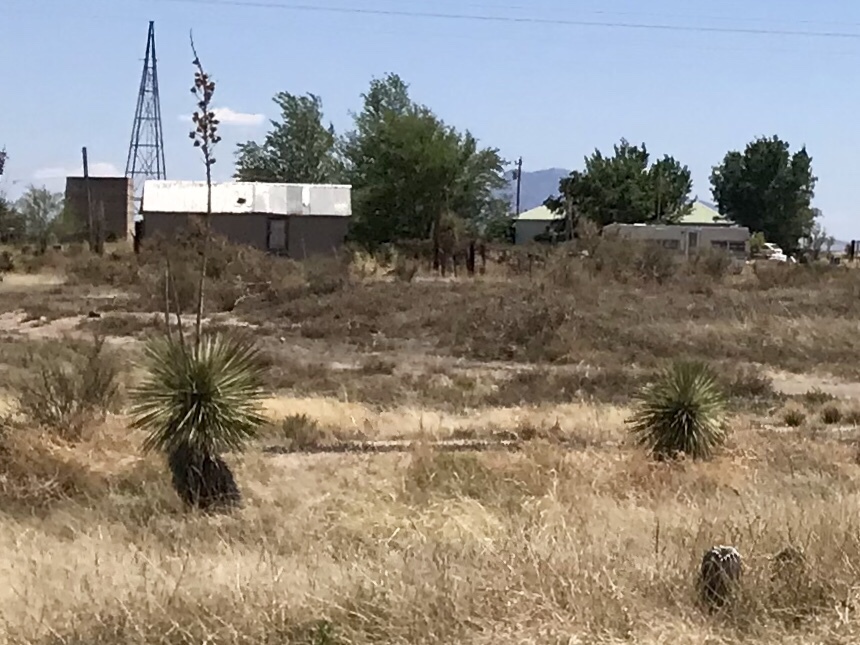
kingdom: Plantae
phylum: Tracheophyta
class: Liliopsida
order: Asparagales
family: Asparagaceae
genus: Yucca
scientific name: Yucca elata
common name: Palmella
